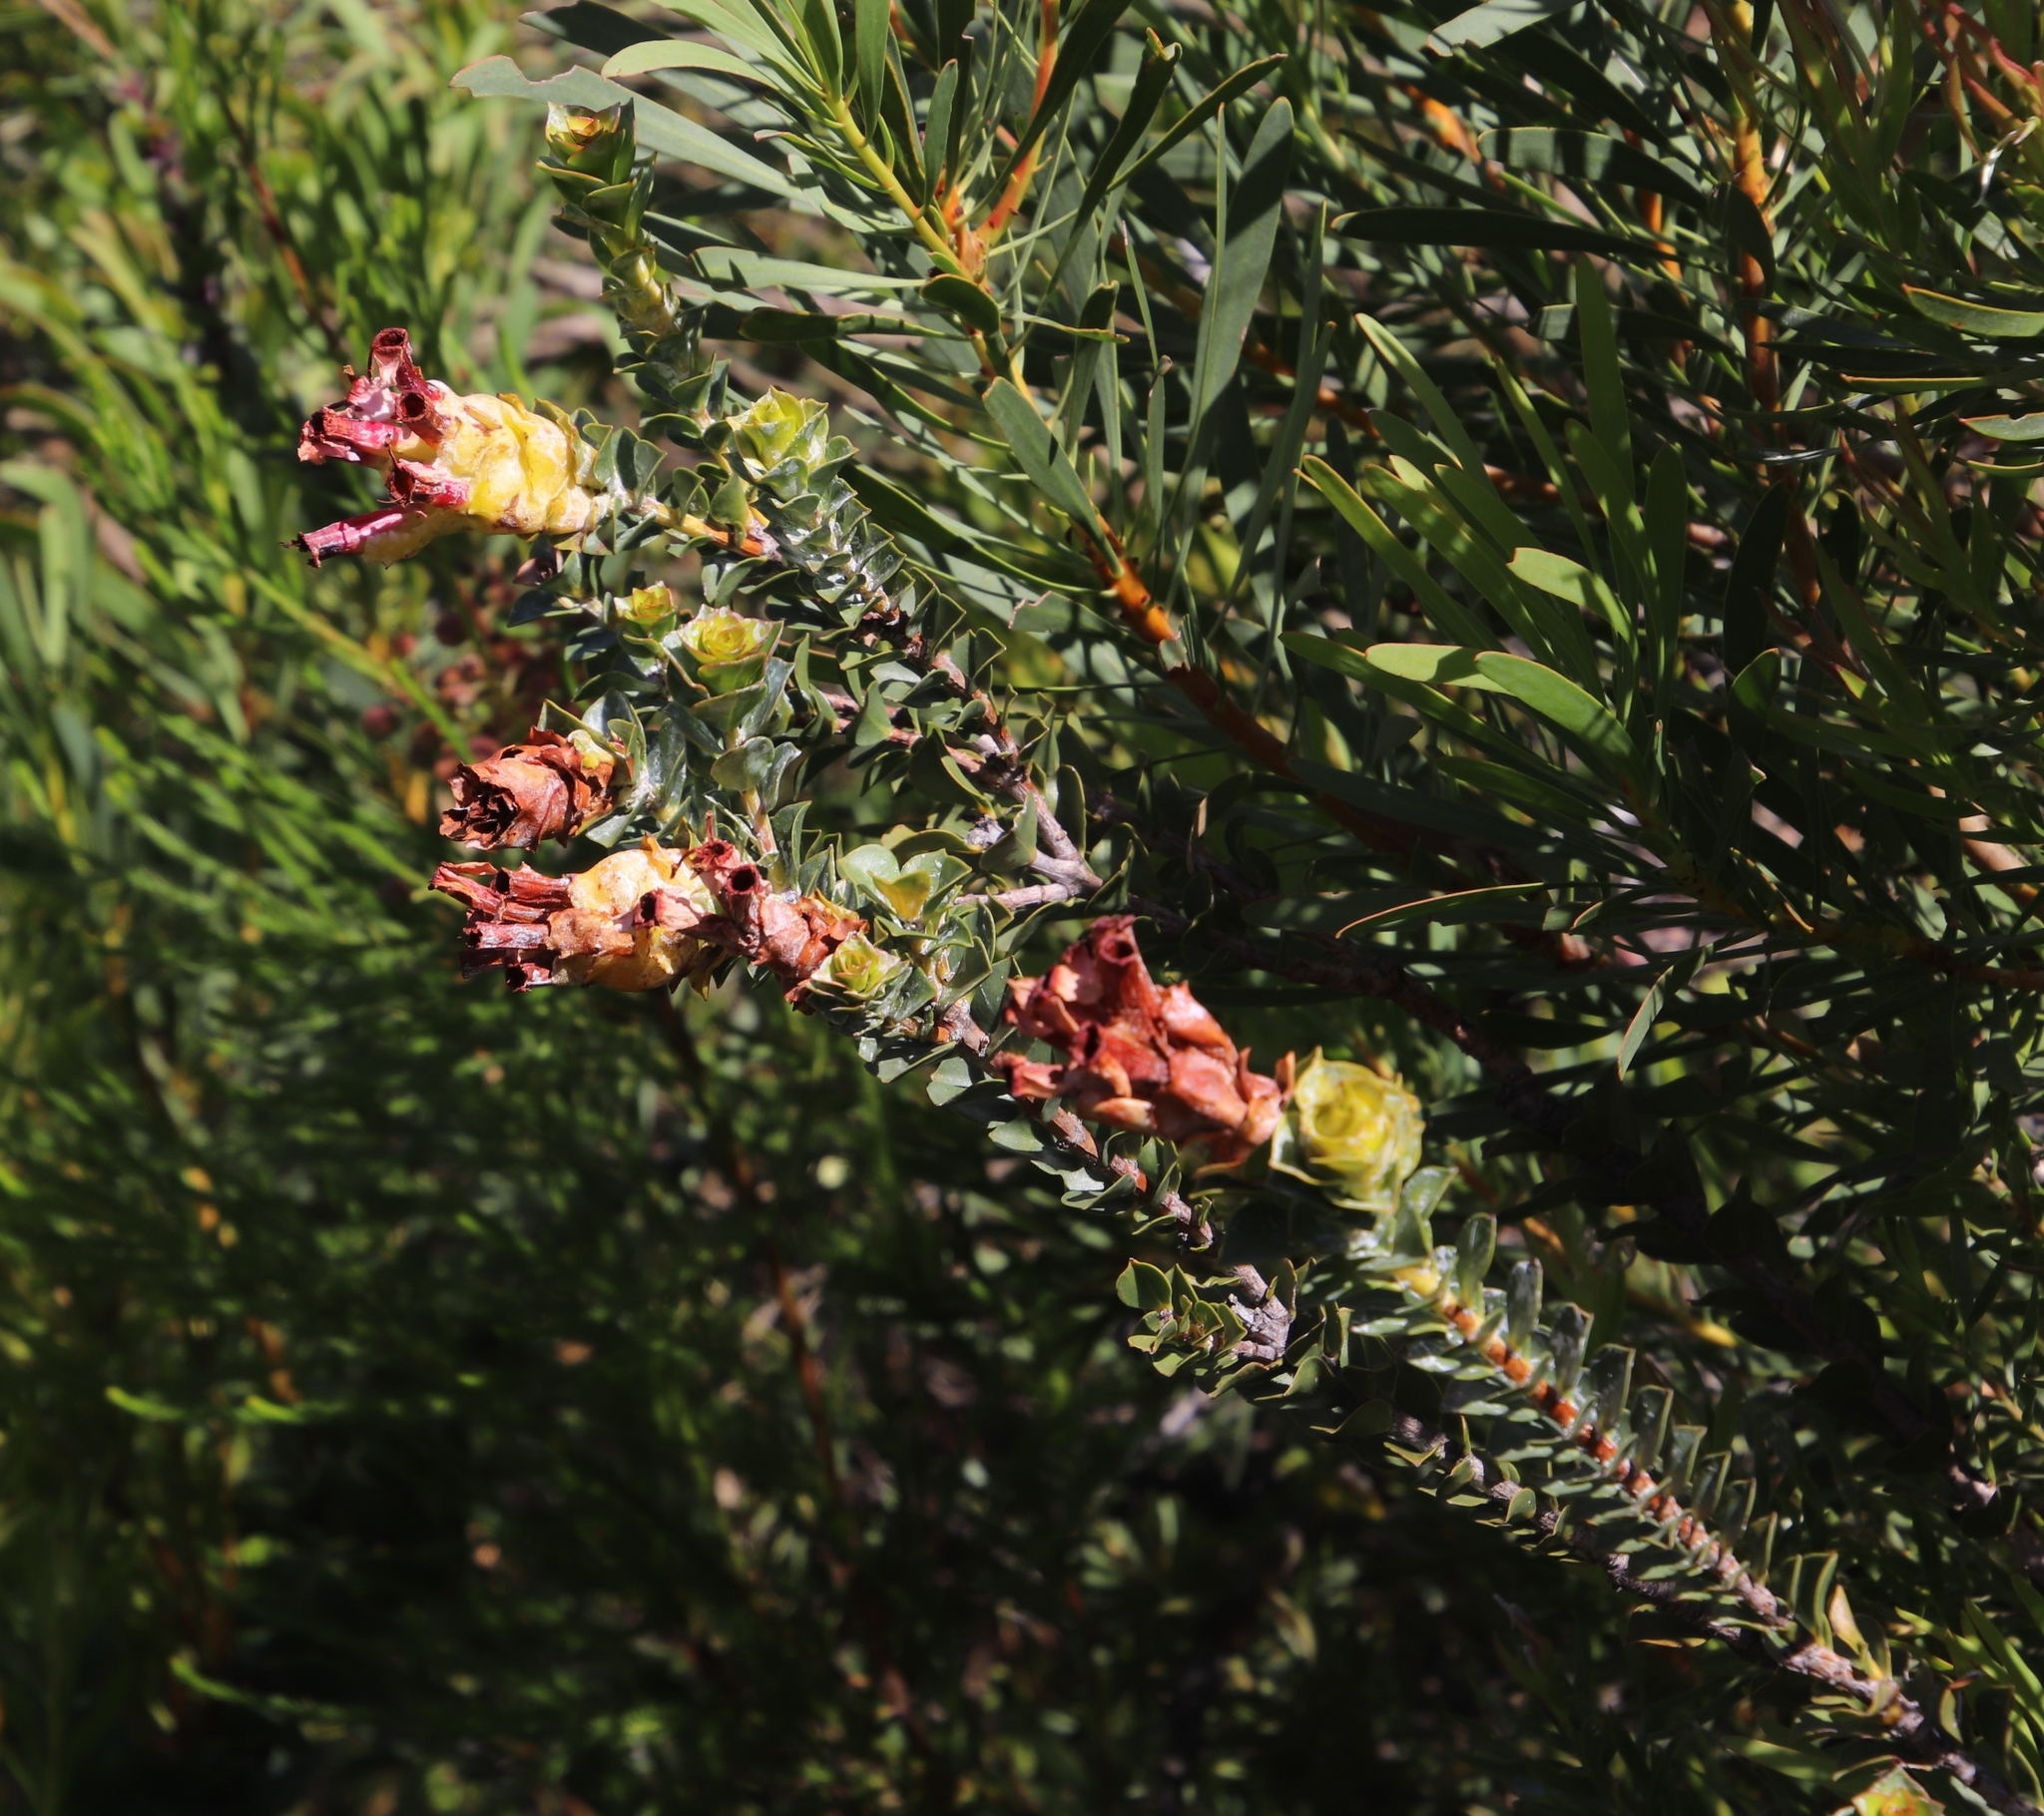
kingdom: Plantae
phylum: Tracheophyta
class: Magnoliopsida
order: Myrtales
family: Penaeaceae
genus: Saltera
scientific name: Saltera sarcocolla
